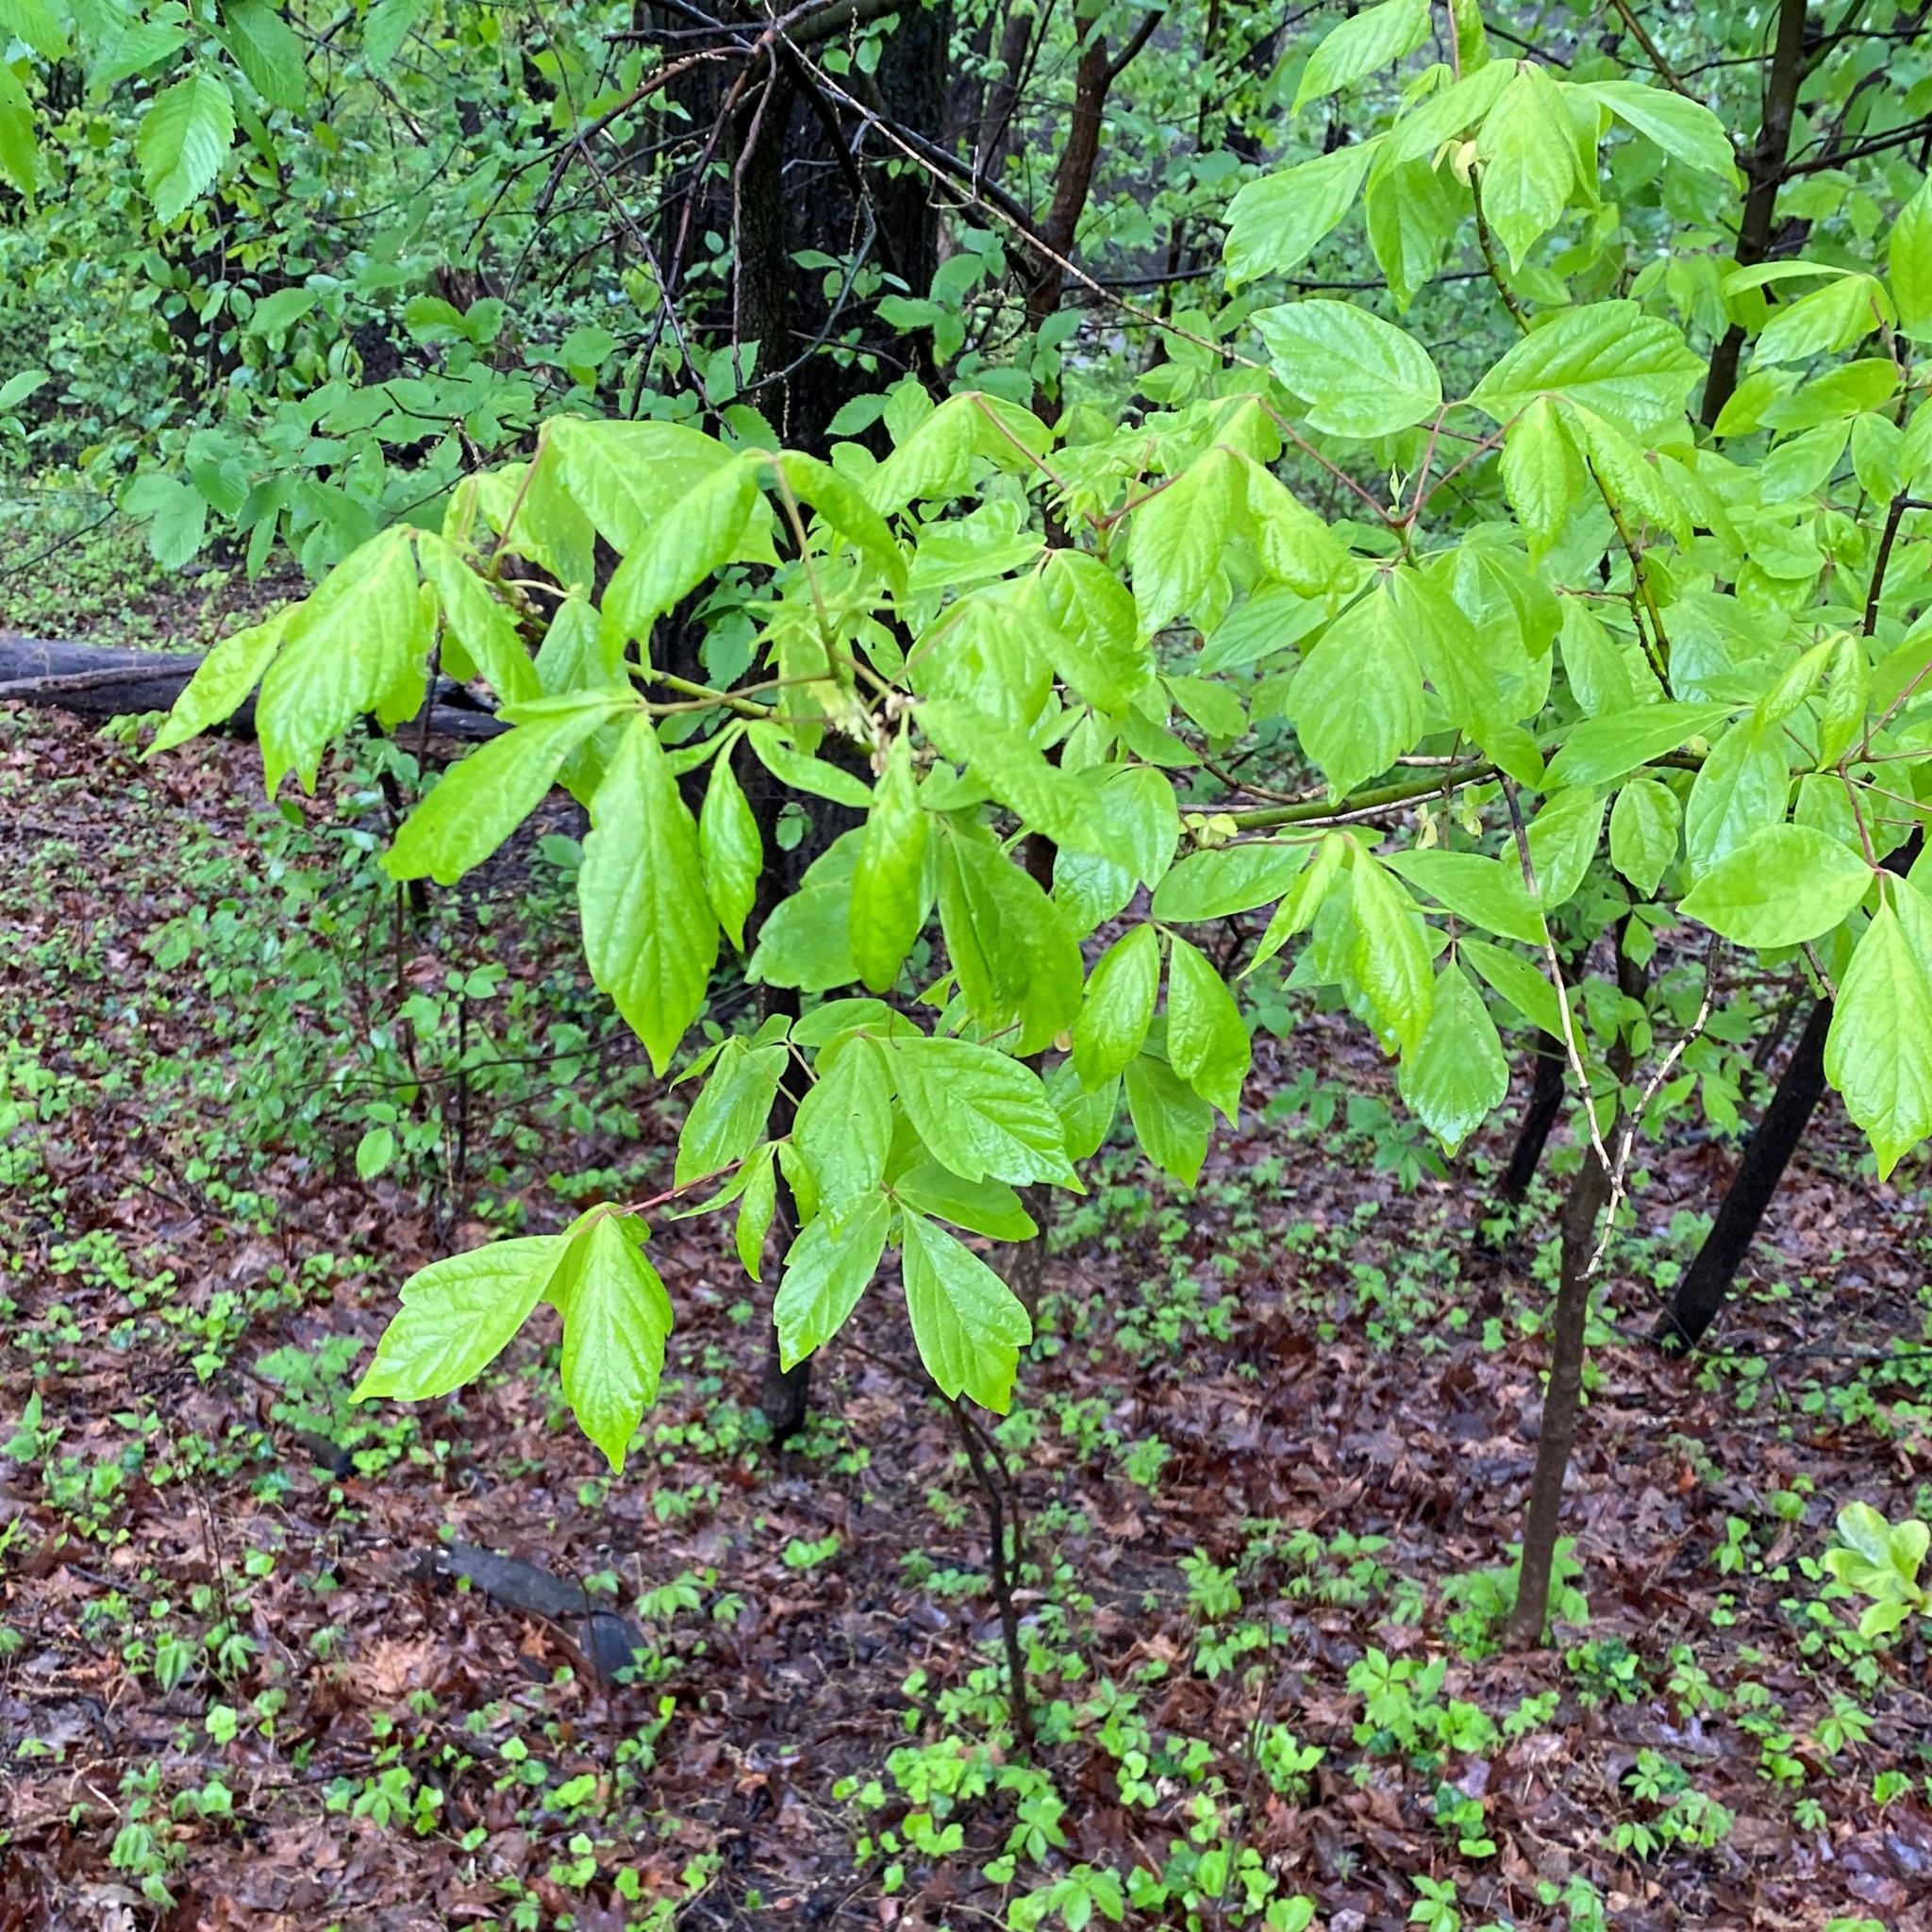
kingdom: Plantae
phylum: Tracheophyta
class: Magnoliopsida
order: Sapindales
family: Sapindaceae
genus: Acer
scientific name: Acer negundo
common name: Ashleaf maple
